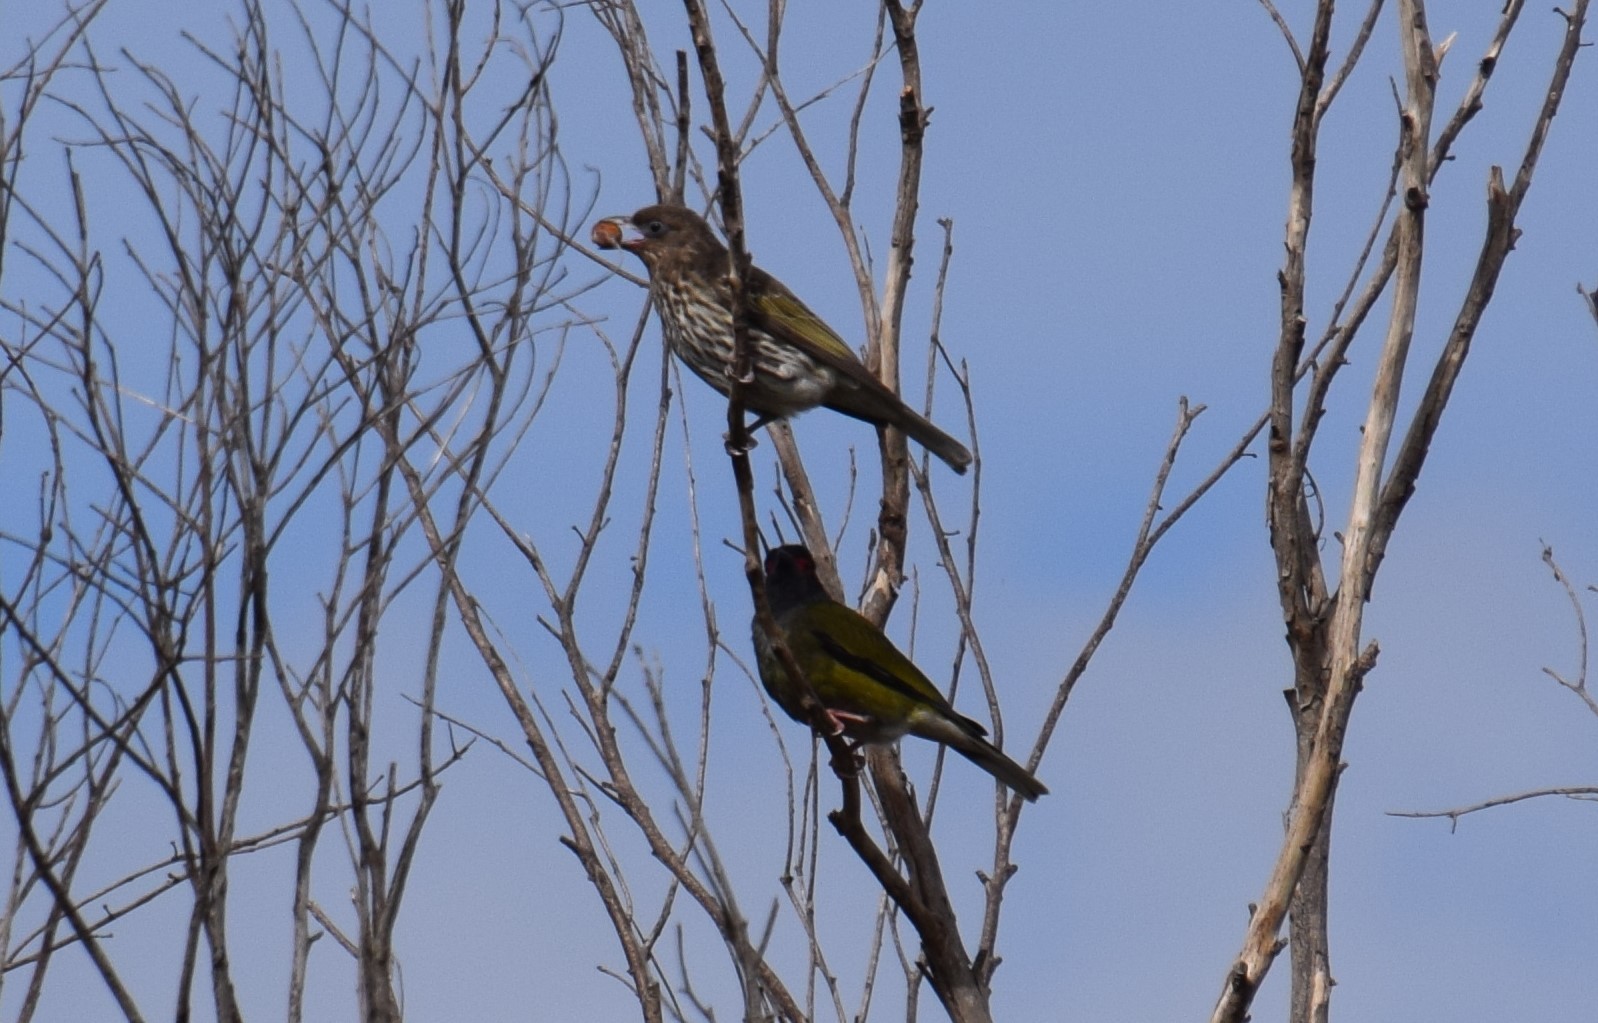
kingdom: Animalia
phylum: Chordata
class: Aves
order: Passeriformes
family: Oriolidae
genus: Sphecotheres
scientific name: Sphecotheres vieilloti
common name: Australasian figbird
